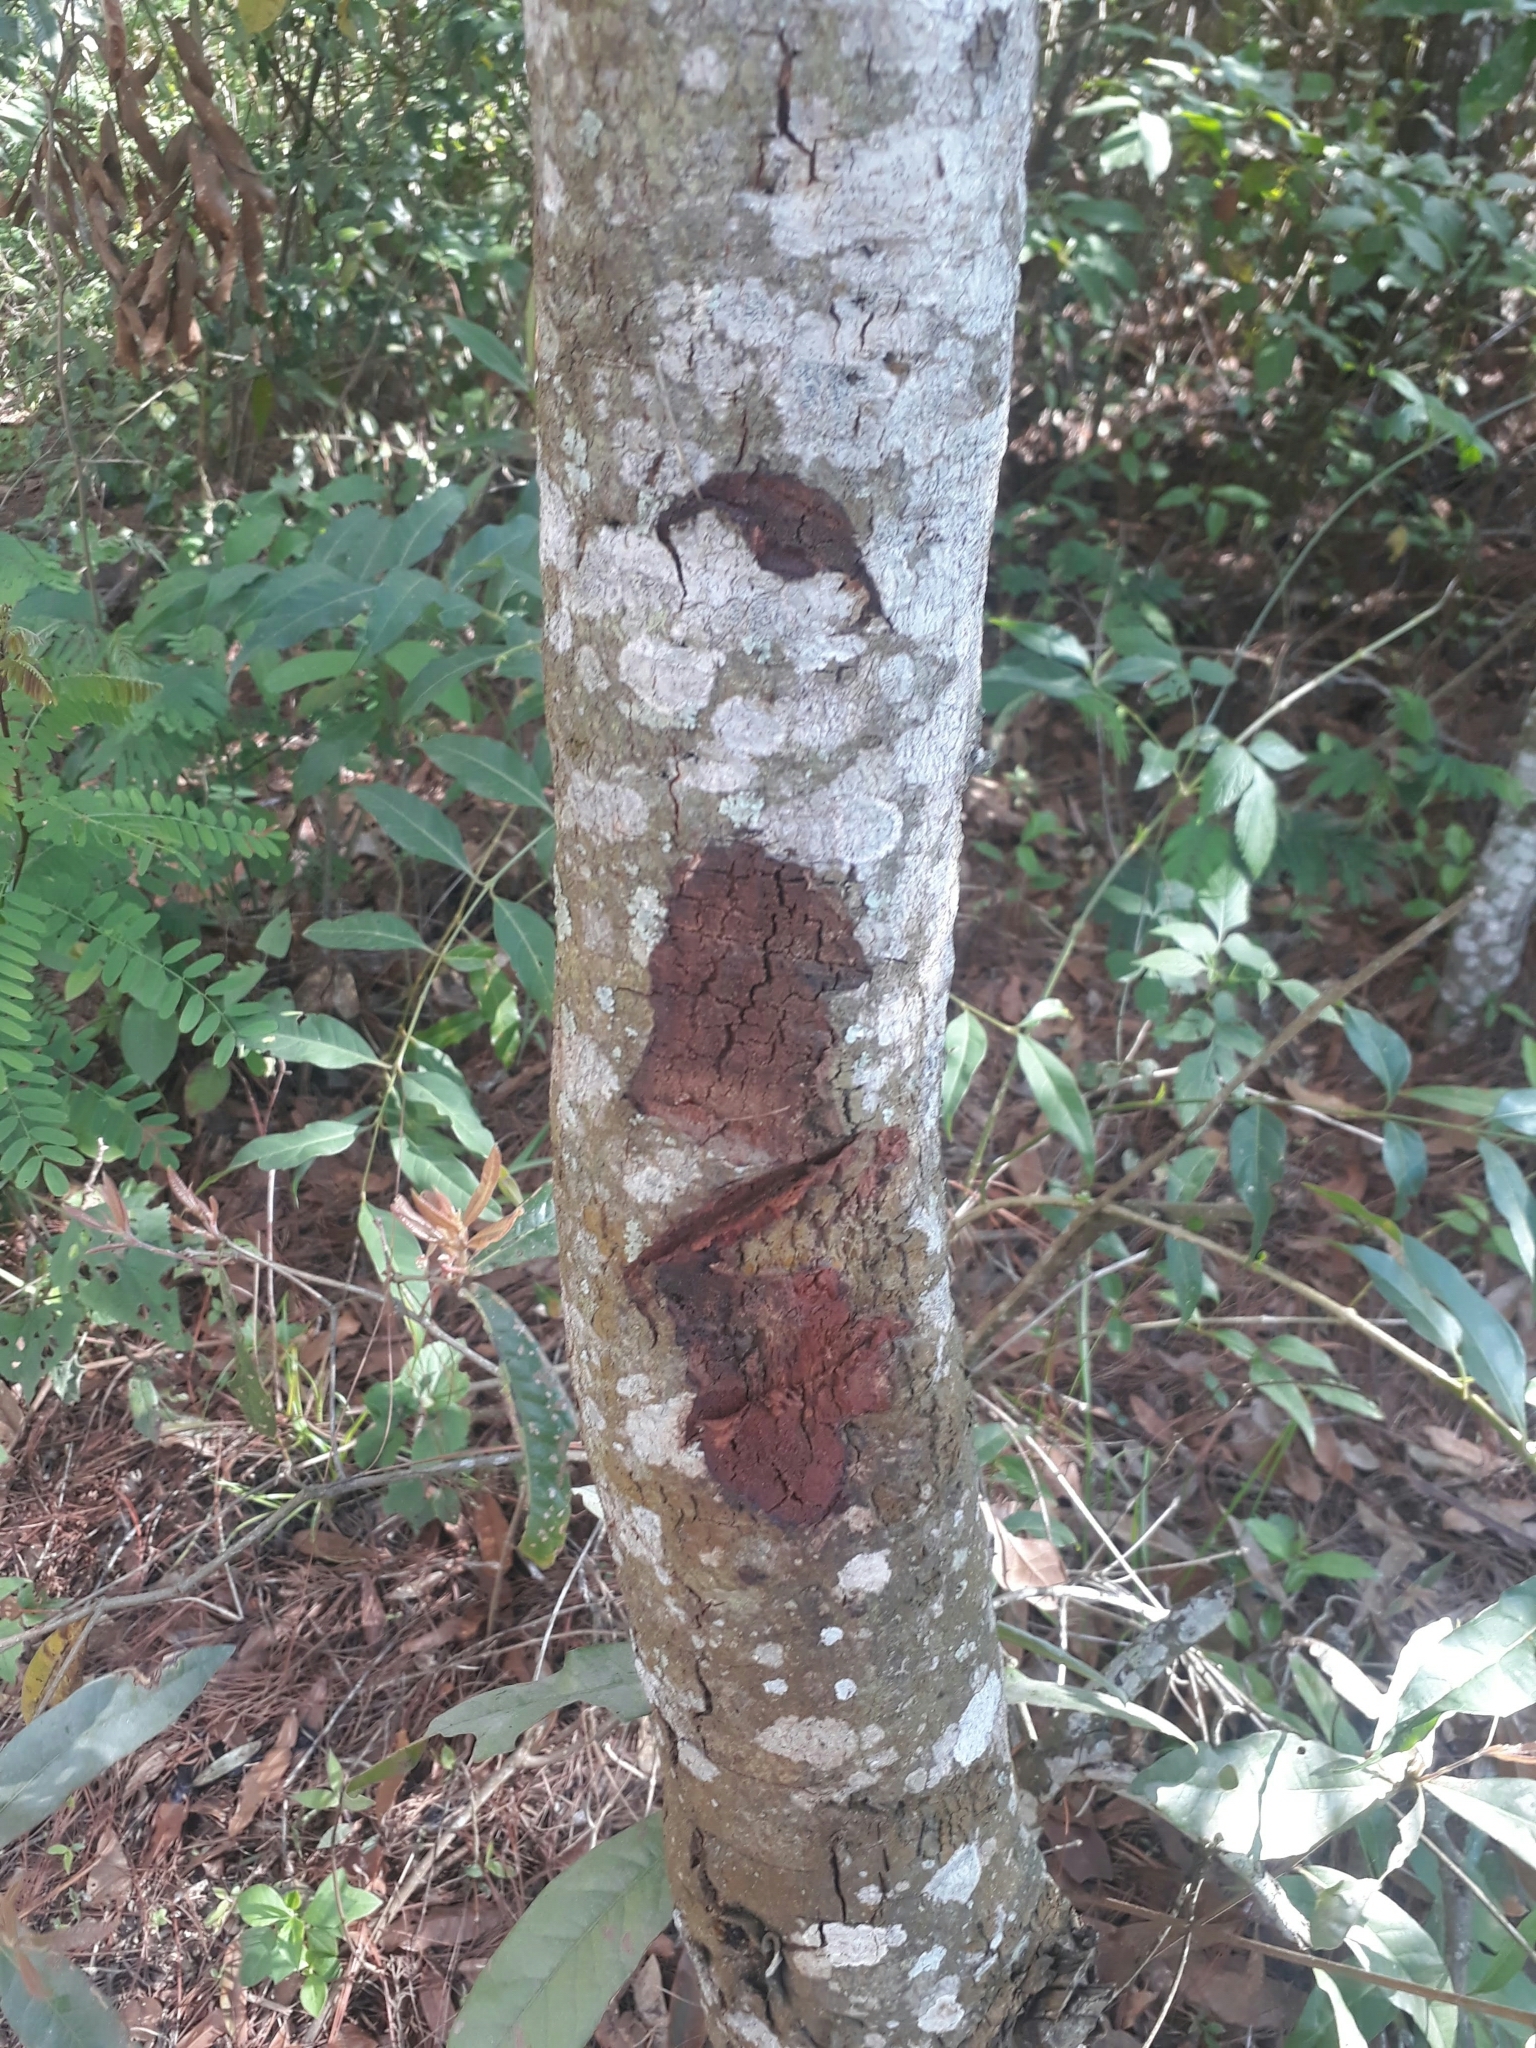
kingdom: Plantae
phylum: Tracheophyta
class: Magnoliopsida
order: Fagales
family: Fagaceae
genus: Quercus
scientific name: Quercus sapotifolia
